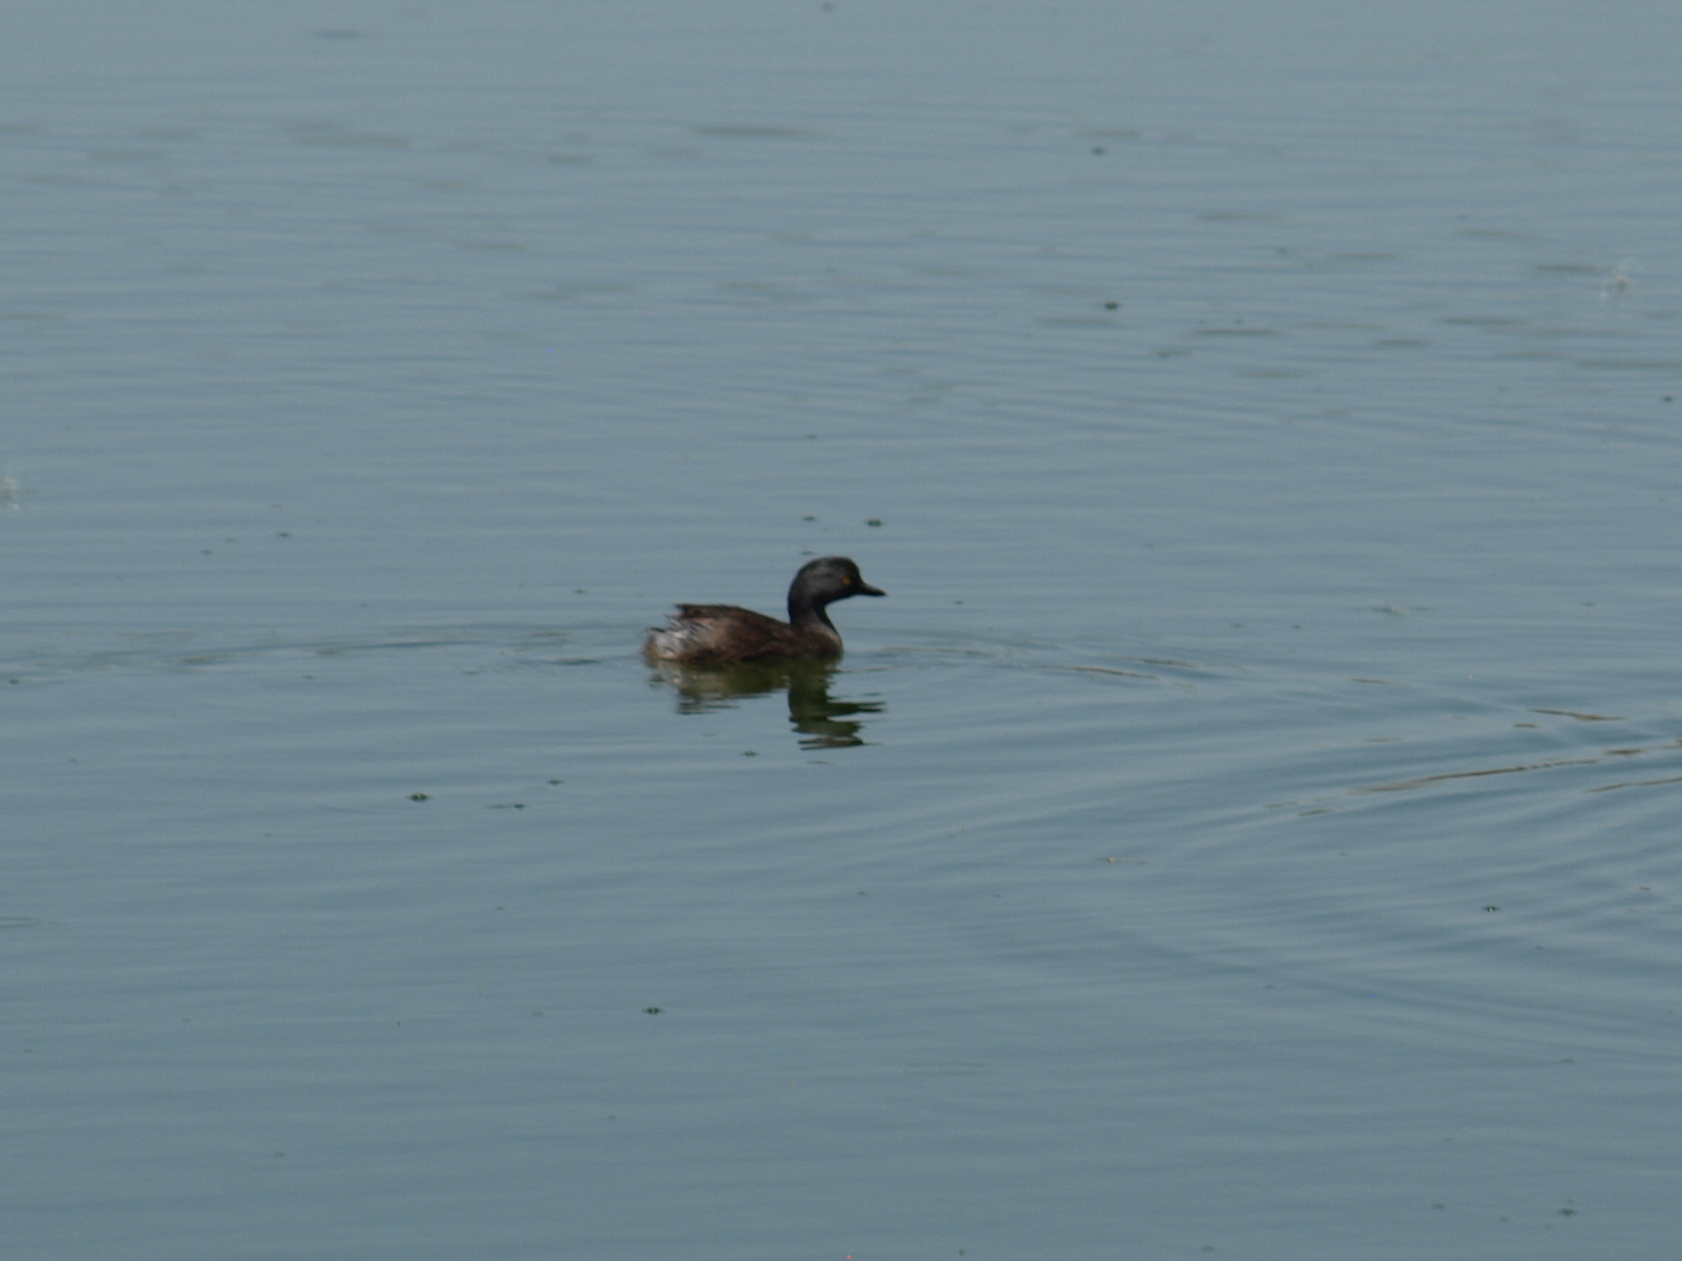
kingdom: Animalia
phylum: Chordata
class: Aves
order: Podicipediformes
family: Podicipedidae
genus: Tachybaptus
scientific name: Tachybaptus dominicus
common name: Least grebe
